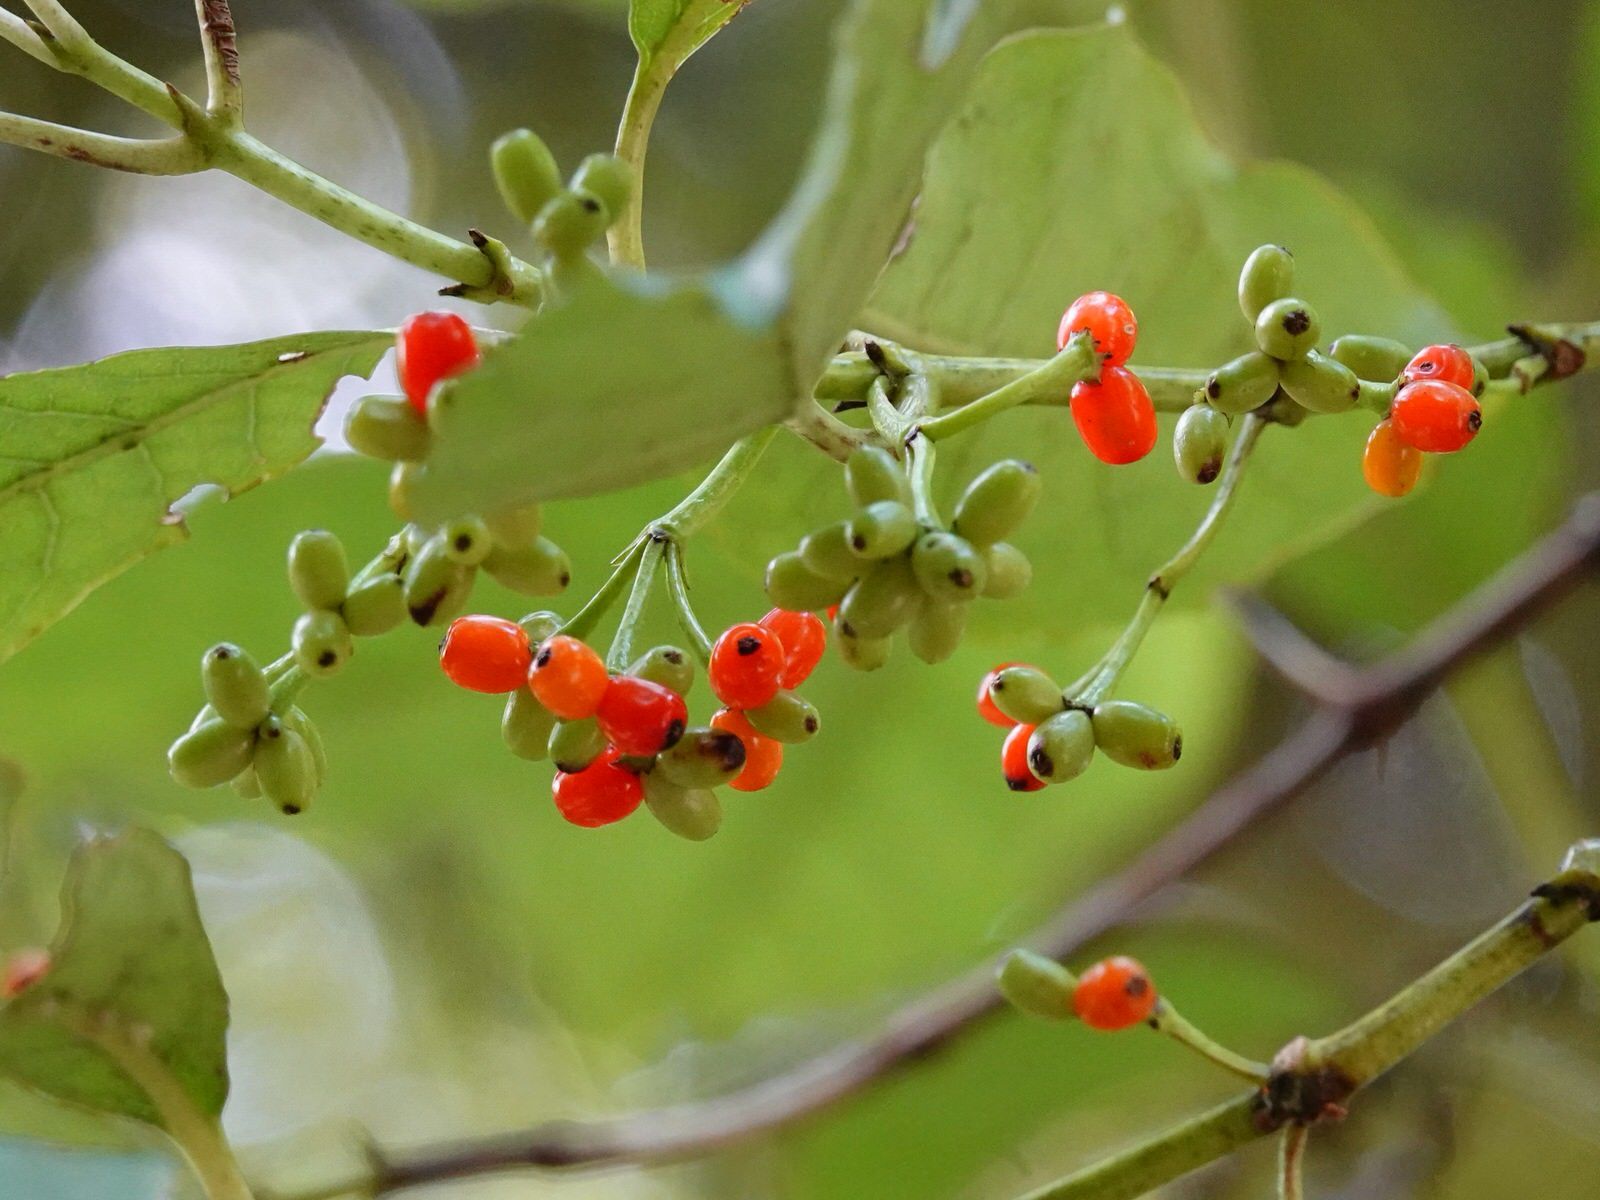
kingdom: Plantae
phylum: Tracheophyta
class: Magnoliopsida
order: Gentianales
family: Rubiaceae
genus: Coprosma
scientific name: Coprosma autumnalis
